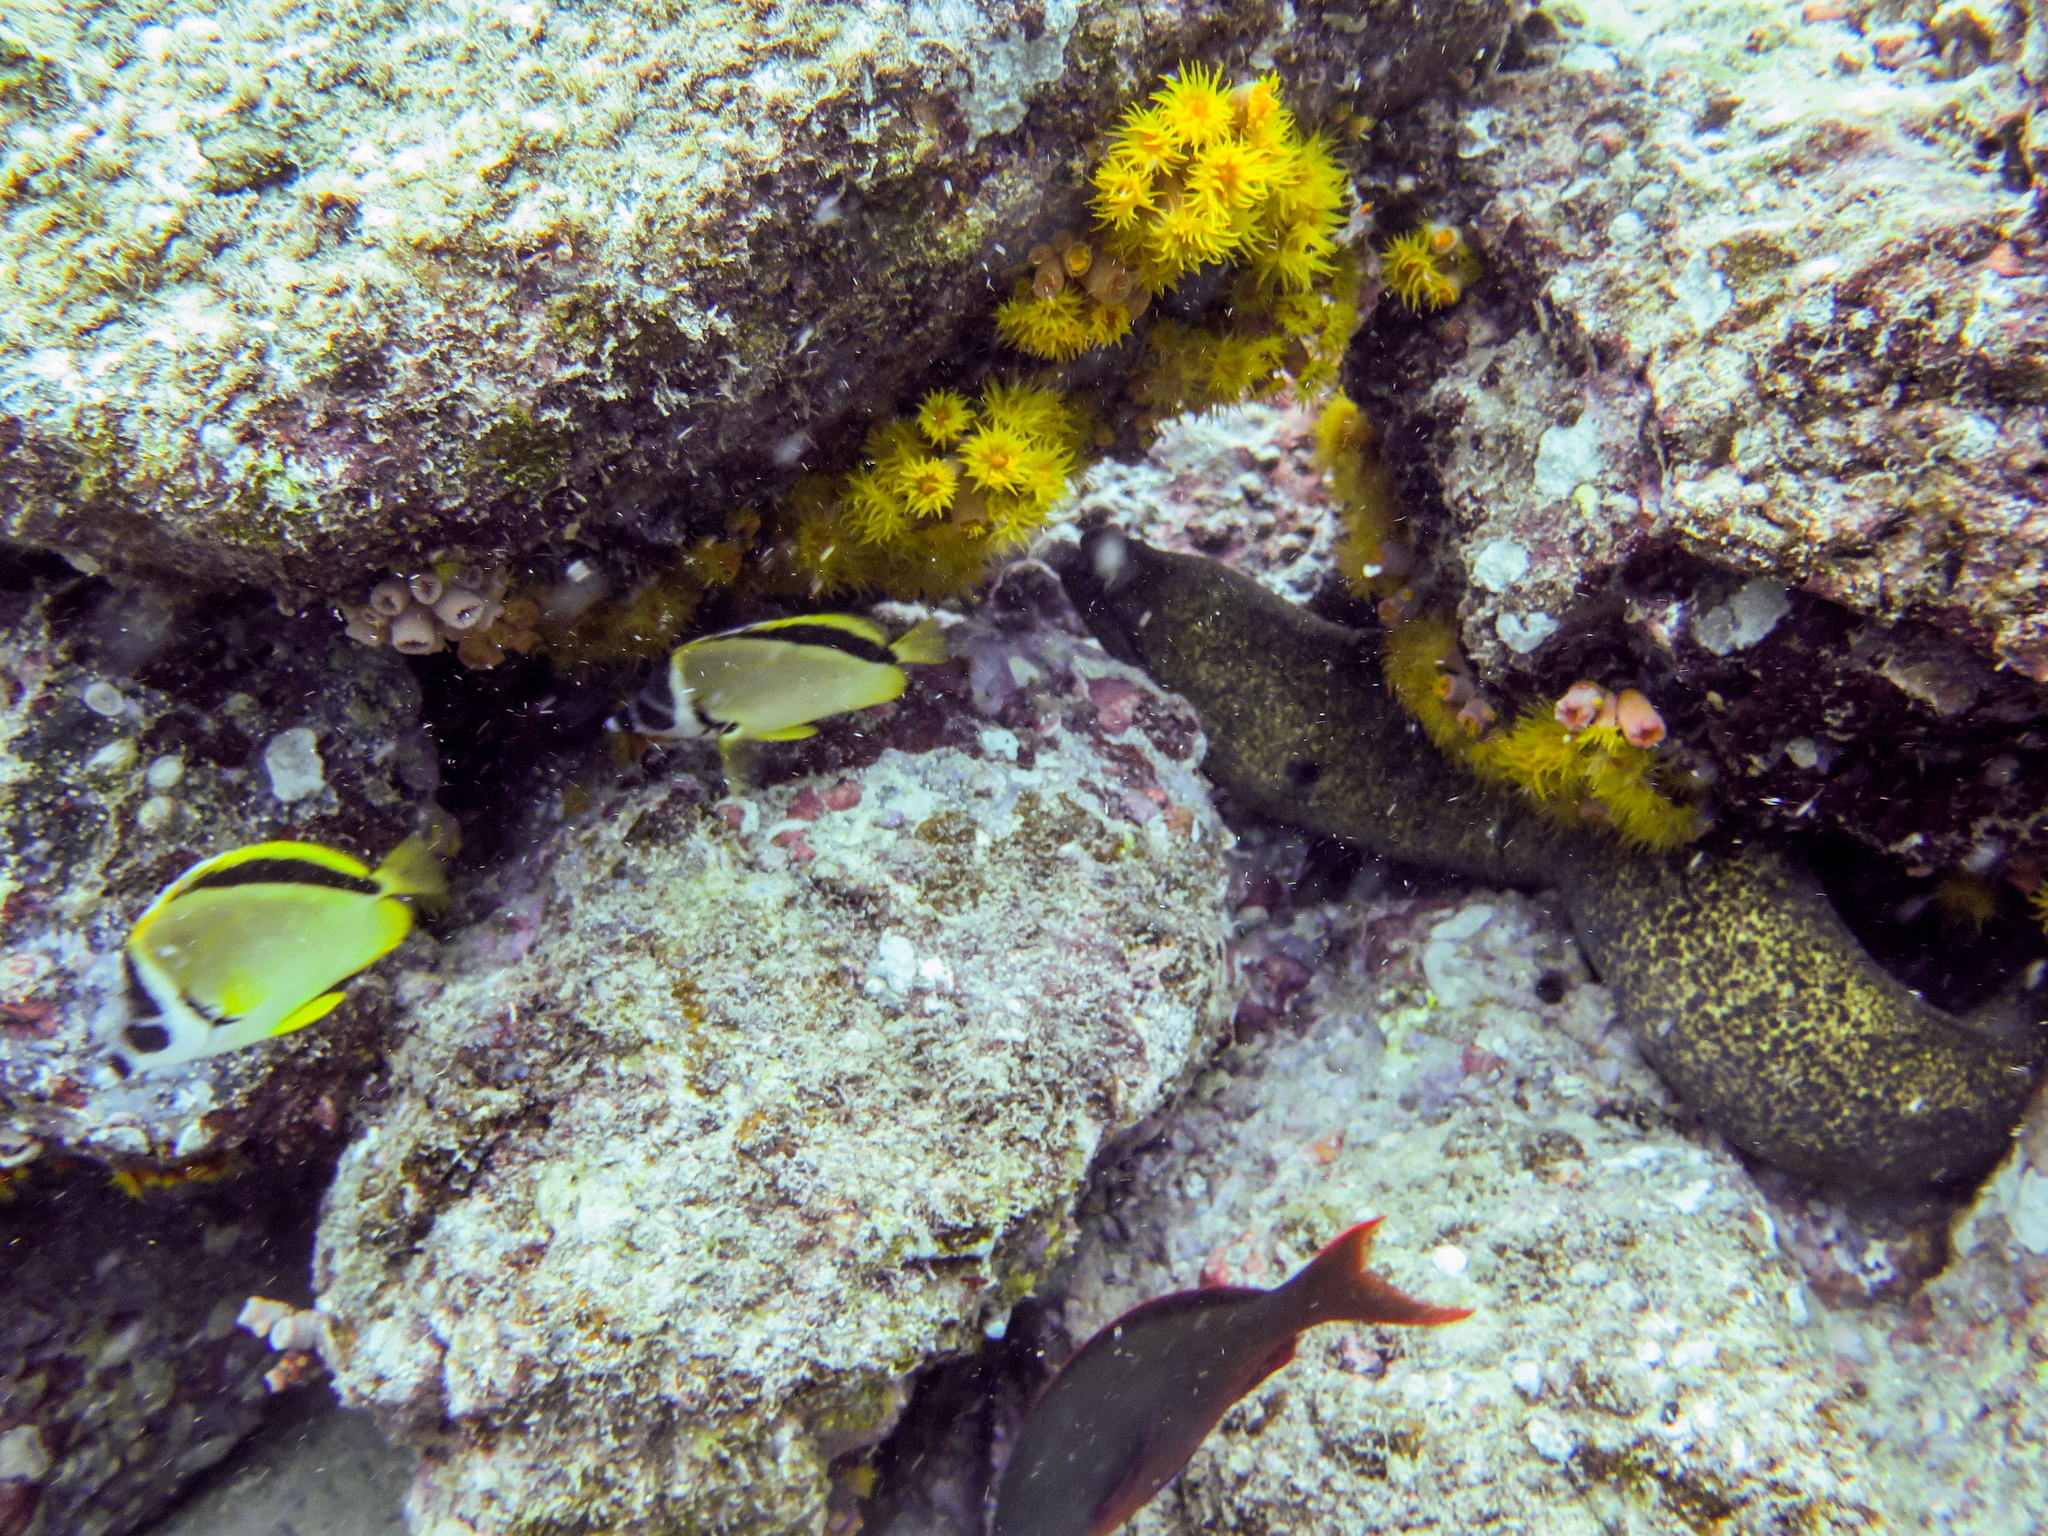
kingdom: Animalia
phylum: Chordata
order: Anguilliformes
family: Muraenidae
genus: Gymnothorax
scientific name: Gymnothorax flavimarginatus
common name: Yellow-edged moray
